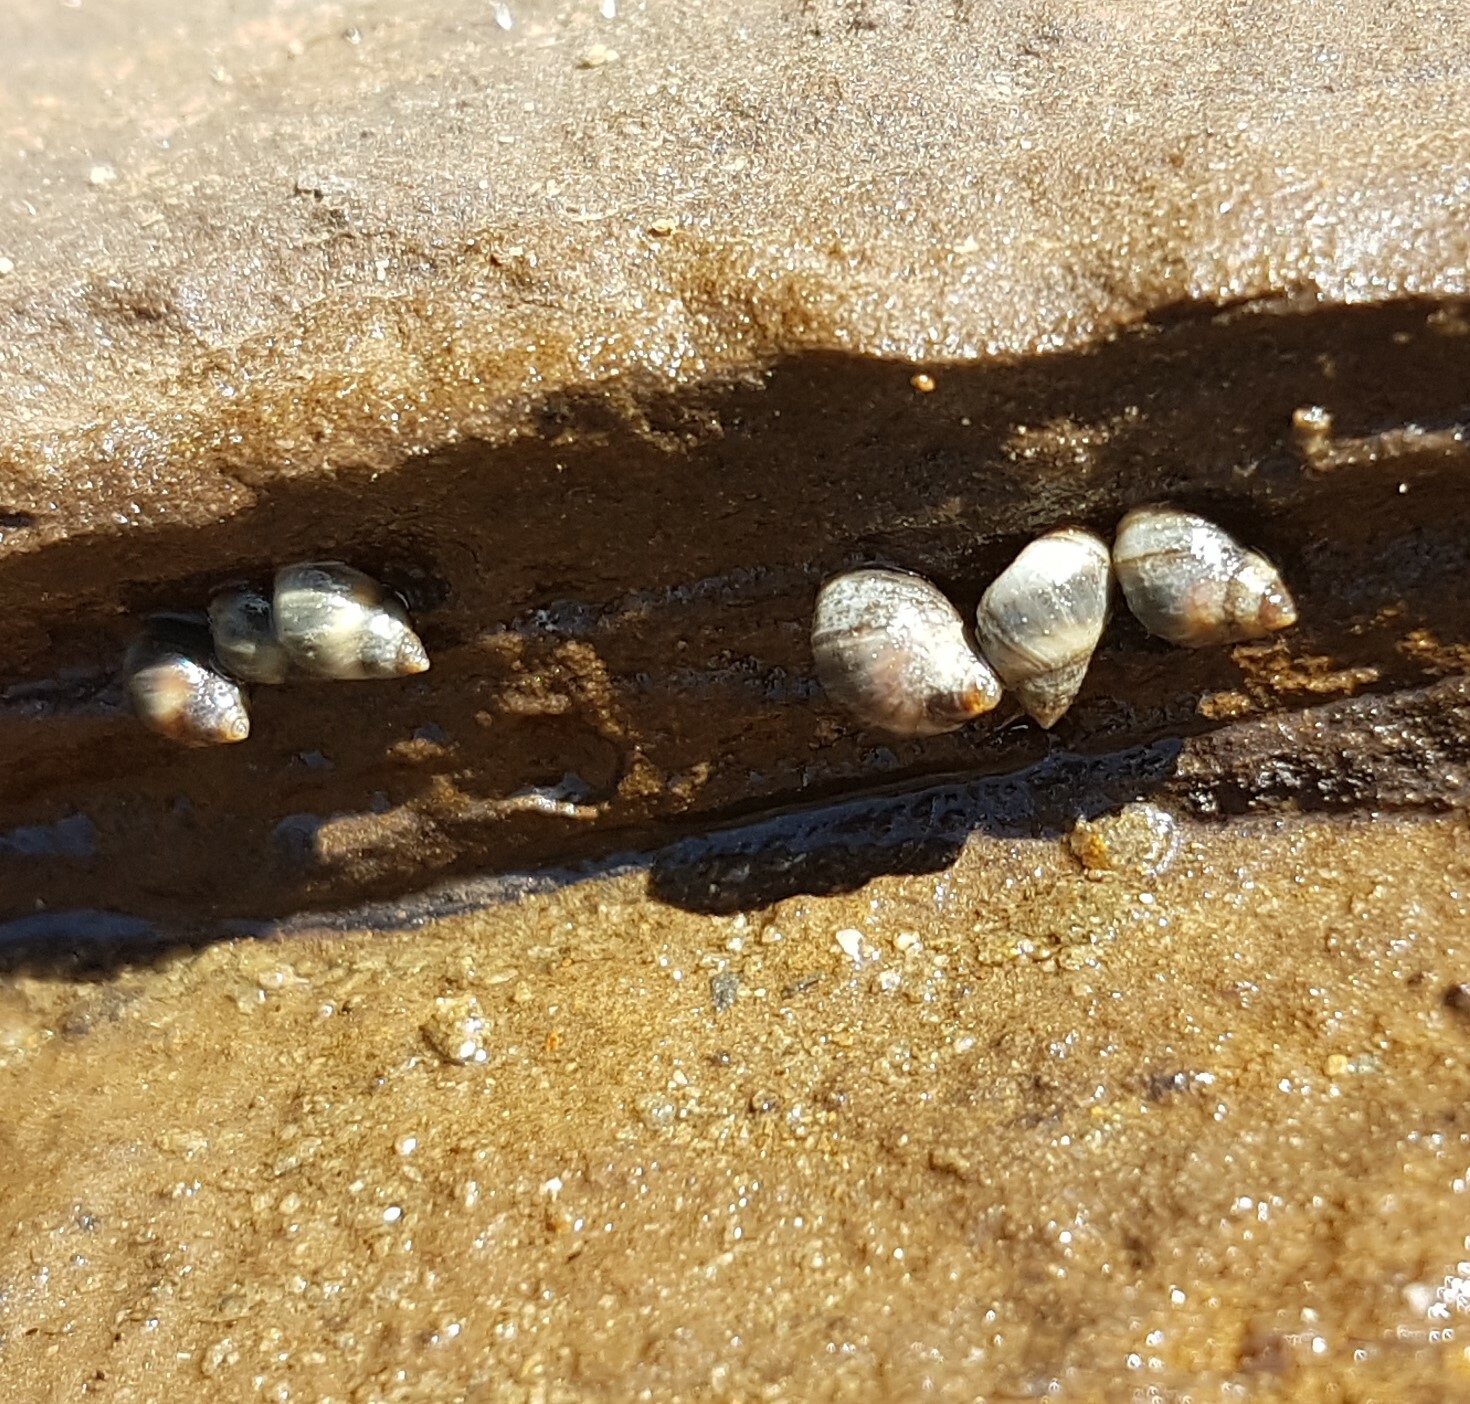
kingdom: Animalia
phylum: Mollusca
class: Gastropoda
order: Littorinimorpha
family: Littorinidae
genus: Melarhaphe
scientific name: Melarhaphe neritoides
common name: Small periwinkle
